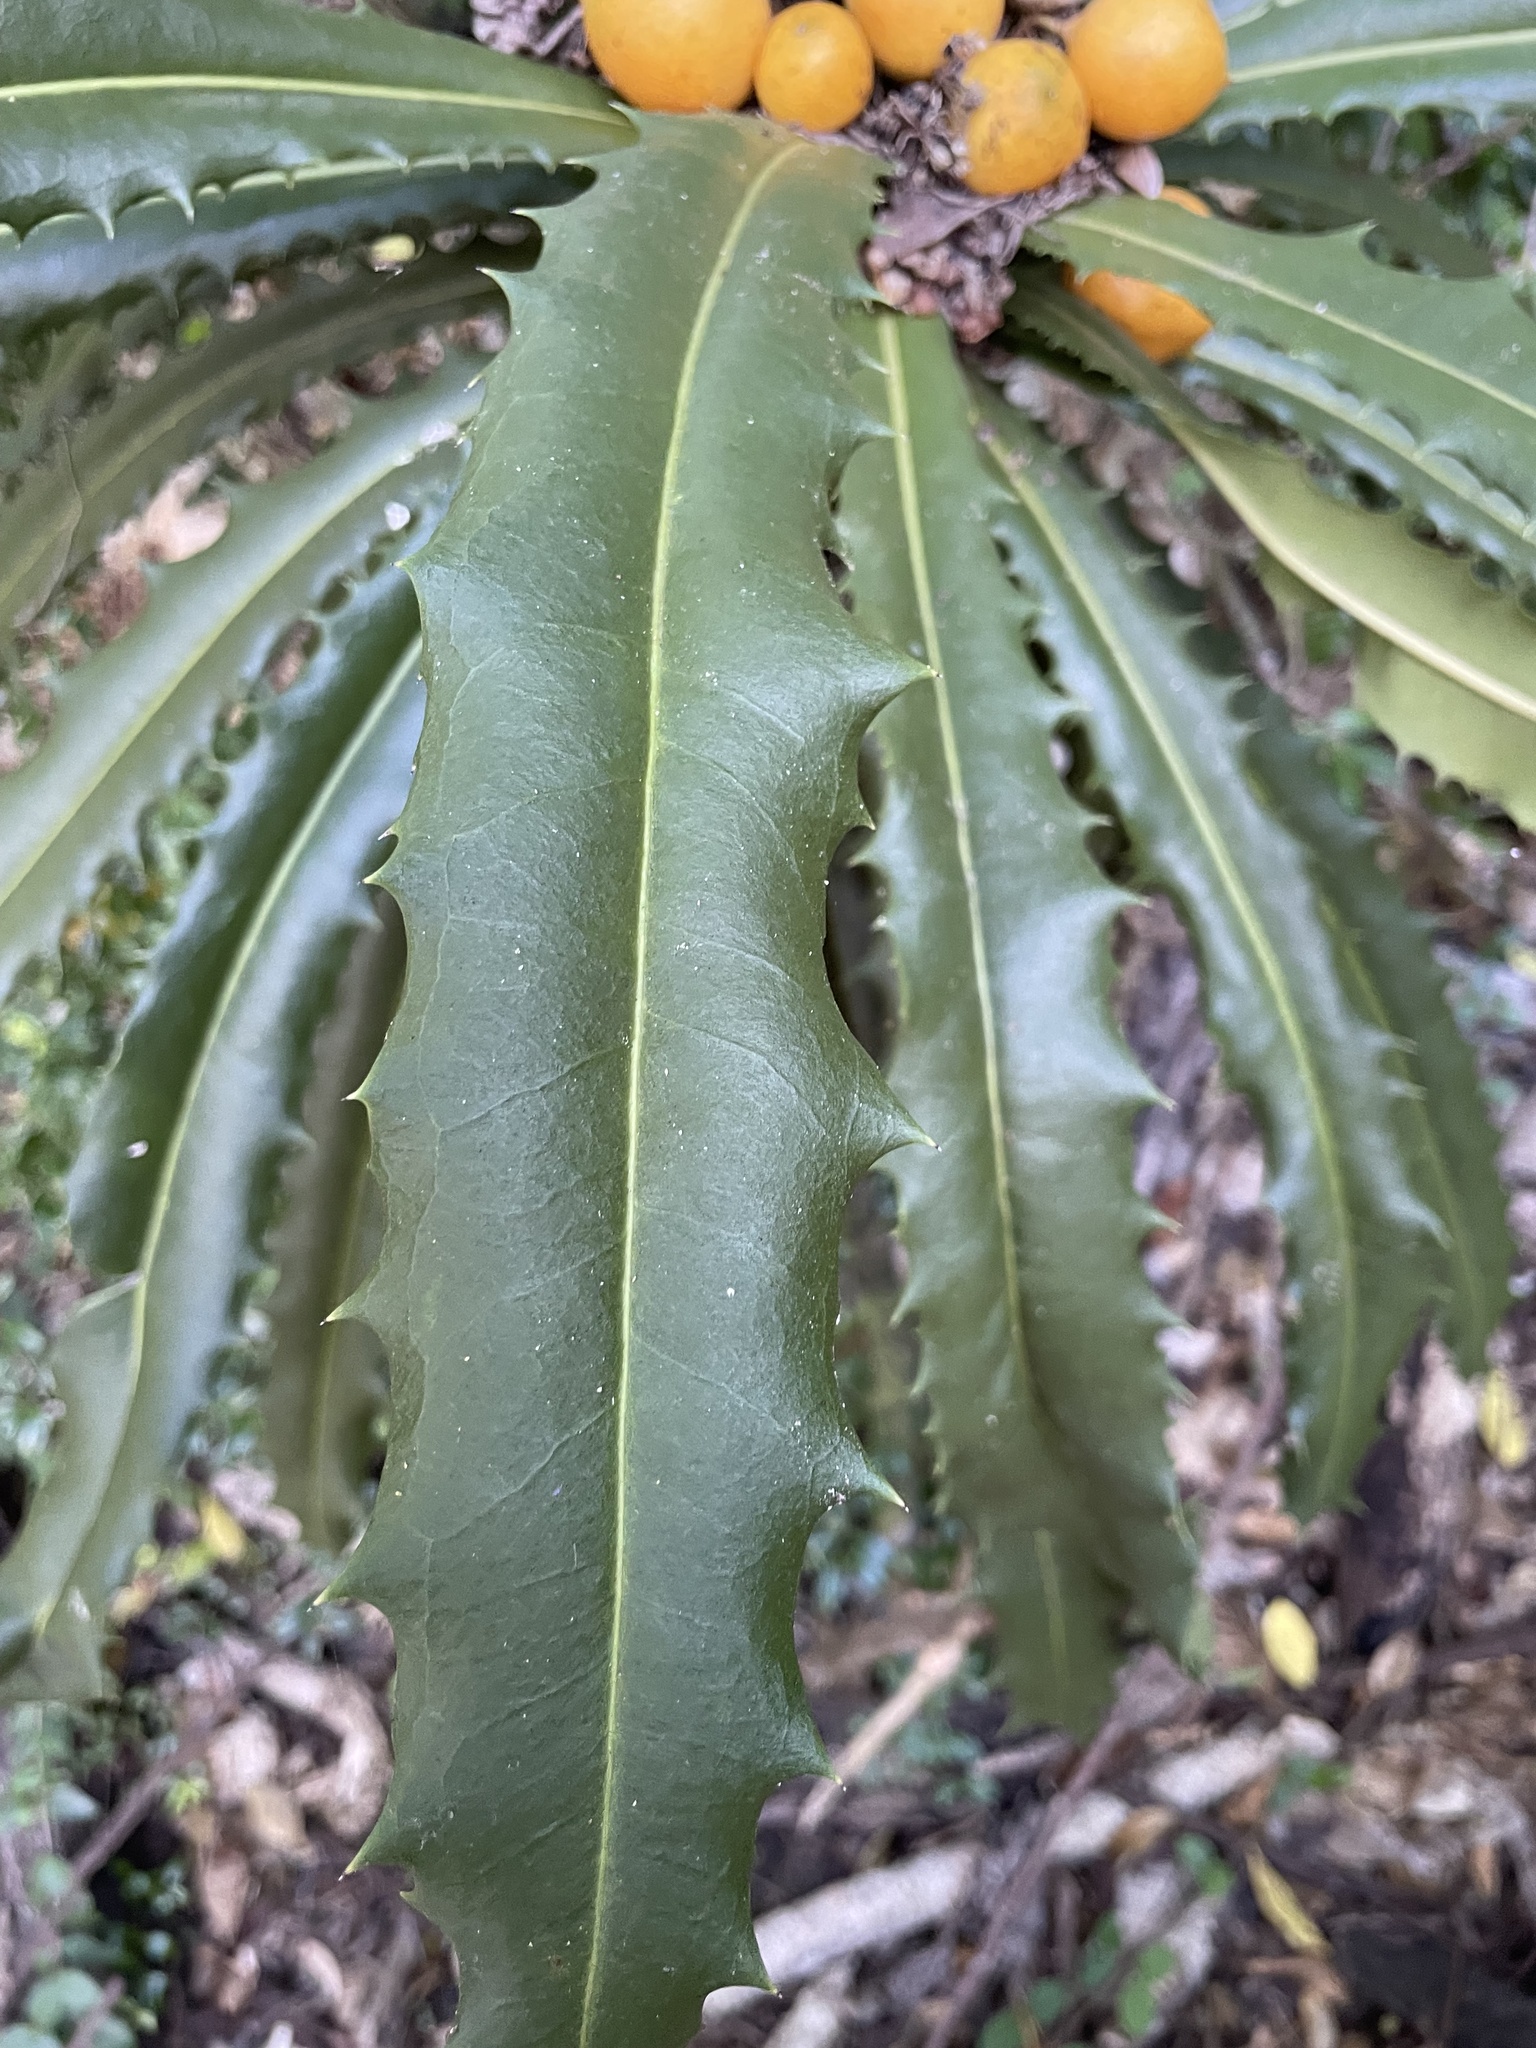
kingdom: Plantae
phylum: Tracheophyta
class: Magnoliopsida
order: Ericales
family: Primulaceae
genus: Theophrasta
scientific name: Theophrasta americana
